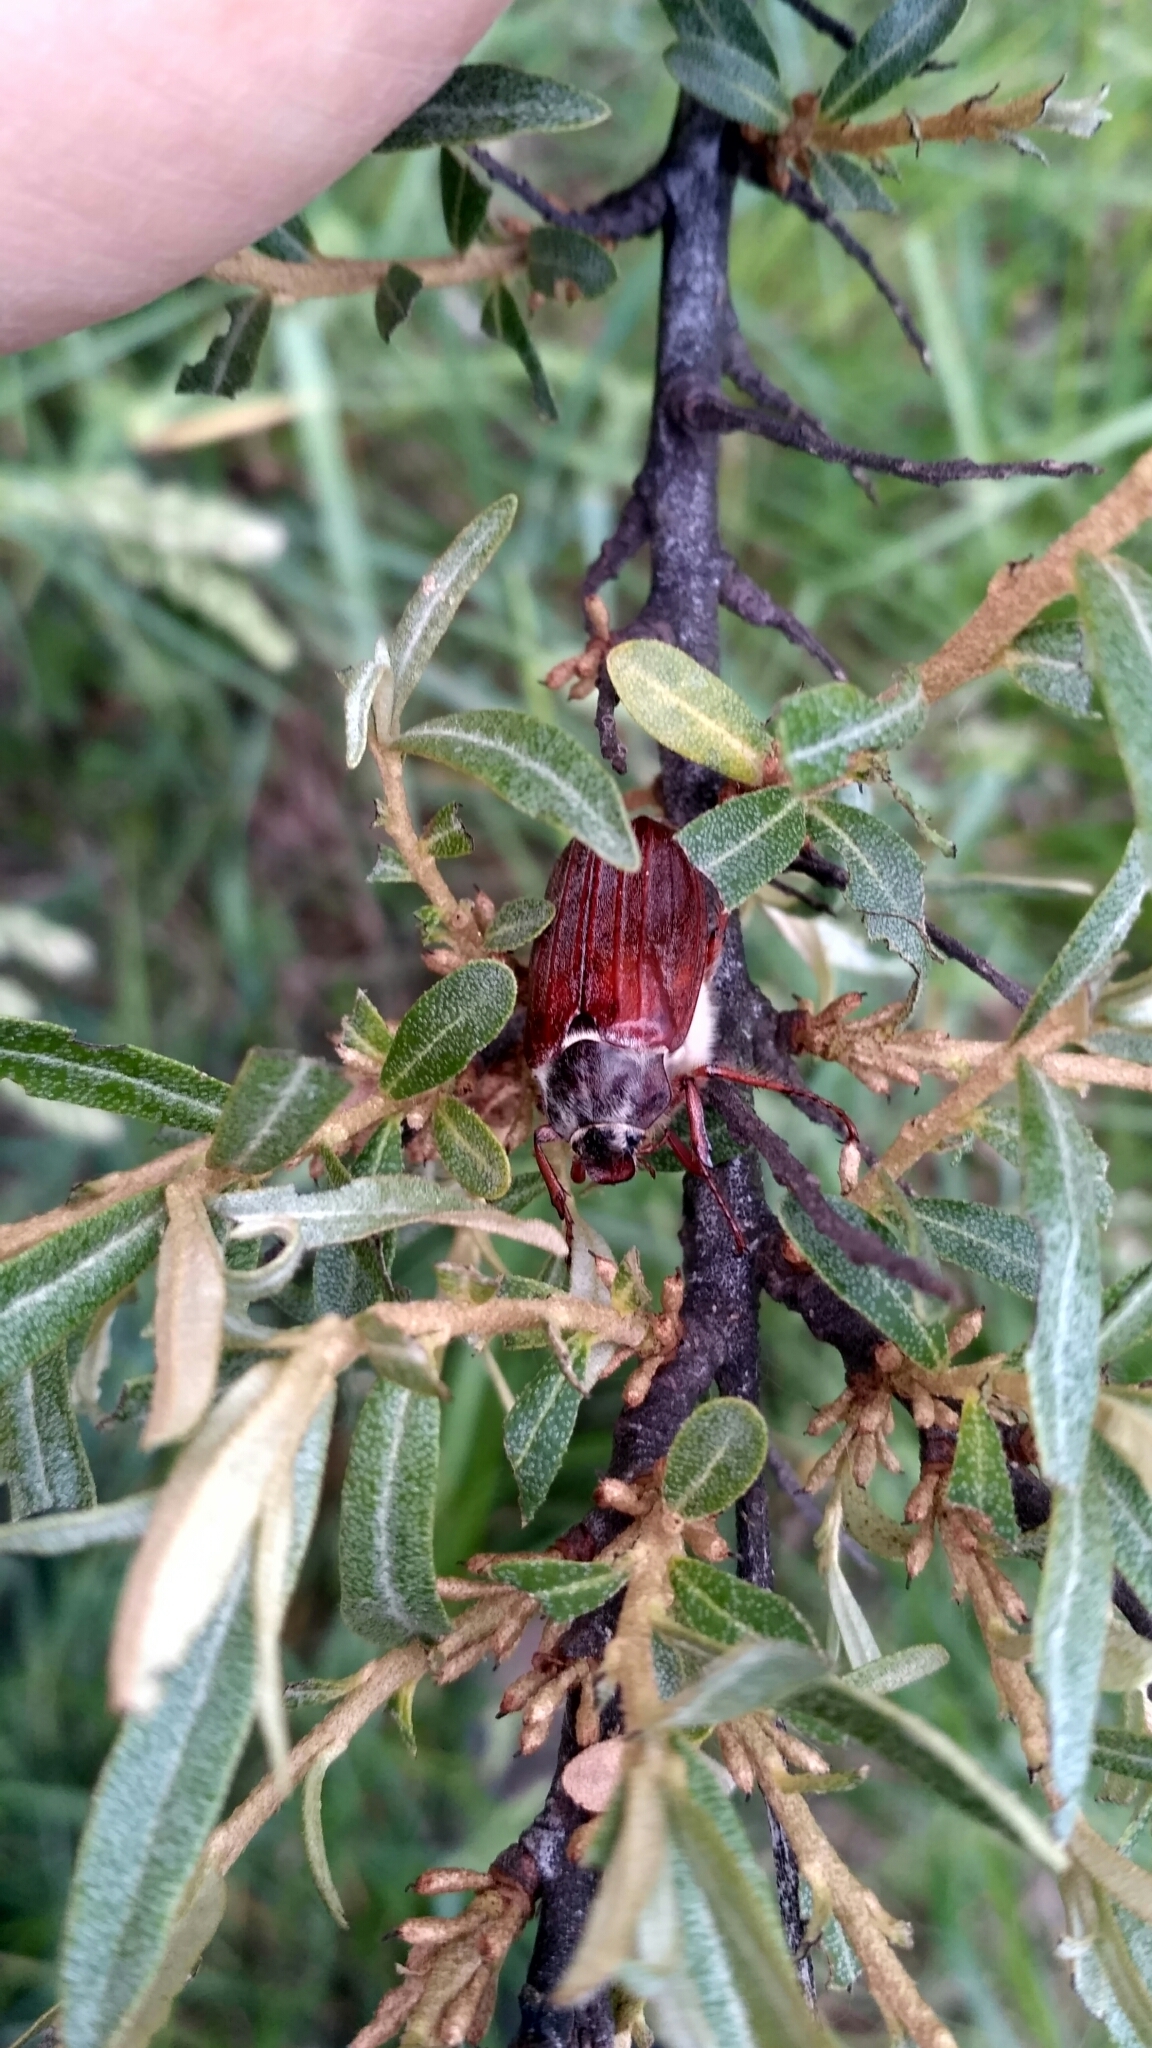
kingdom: Animalia
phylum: Arthropoda
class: Insecta
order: Coleoptera
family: Scarabaeidae
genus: Melolontha
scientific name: Melolontha melolontha
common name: Cockchafer maybeetle
